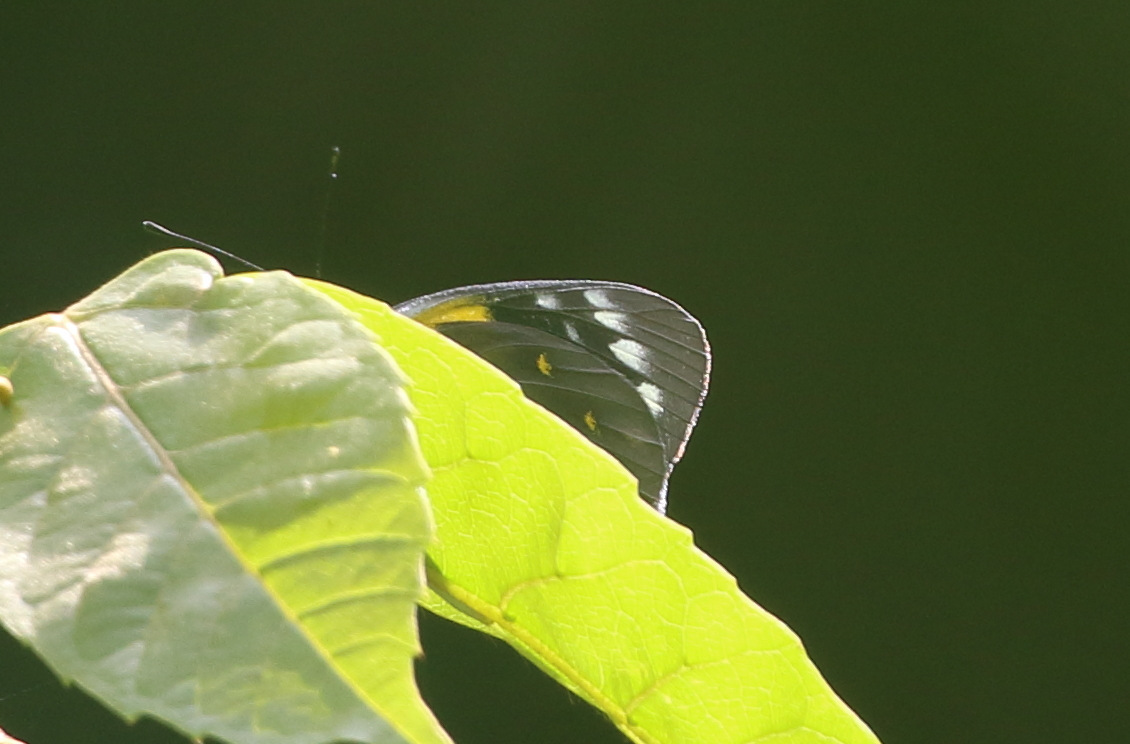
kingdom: Animalia
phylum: Arthropoda
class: Insecta
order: Lepidoptera
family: Pieridae
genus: Delias
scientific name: Delias nysa
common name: Yellow-spotted jezebel
